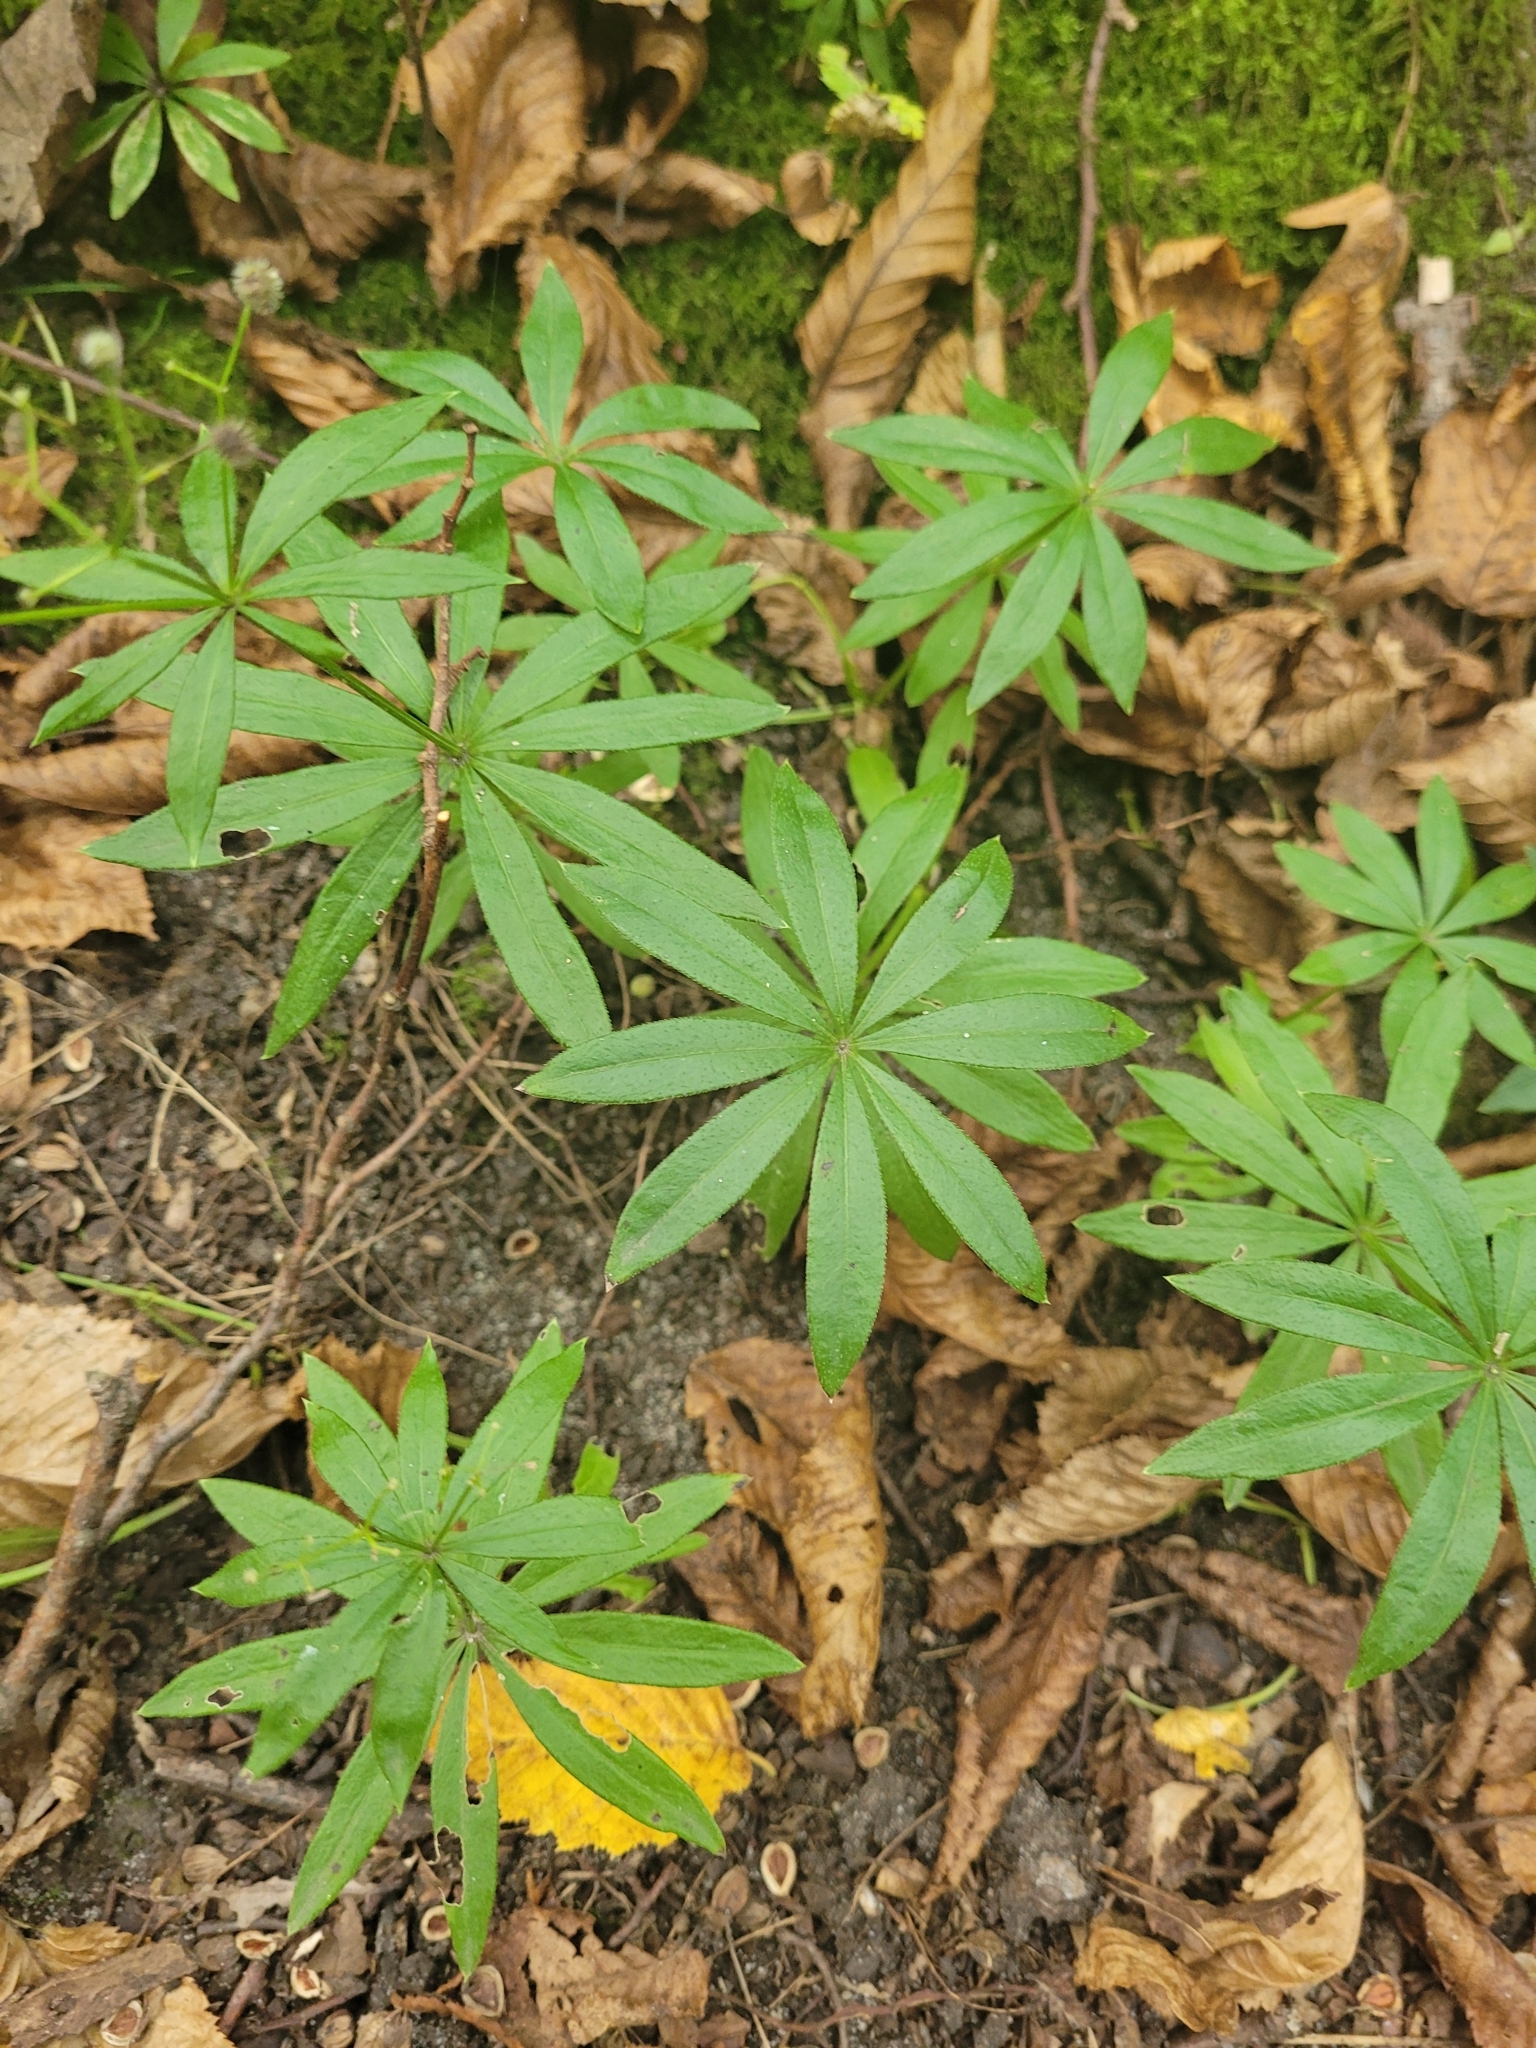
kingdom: Plantae
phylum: Tracheophyta
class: Magnoliopsida
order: Gentianales
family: Rubiaceae
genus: Galium
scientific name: Galium odoratum
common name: Sweet woodruff
